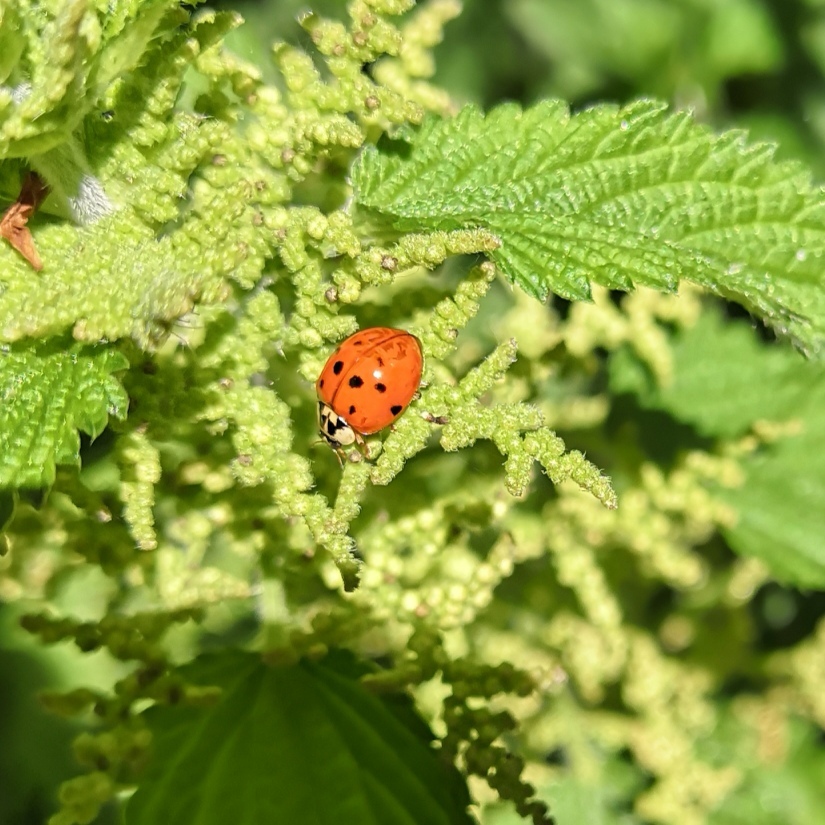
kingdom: Animalia
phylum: Arthropoda
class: Insecta
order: Coleoptera
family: Coccinellidae
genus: Harmonia
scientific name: Harmonia axyridis
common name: Harlequin ladybird
